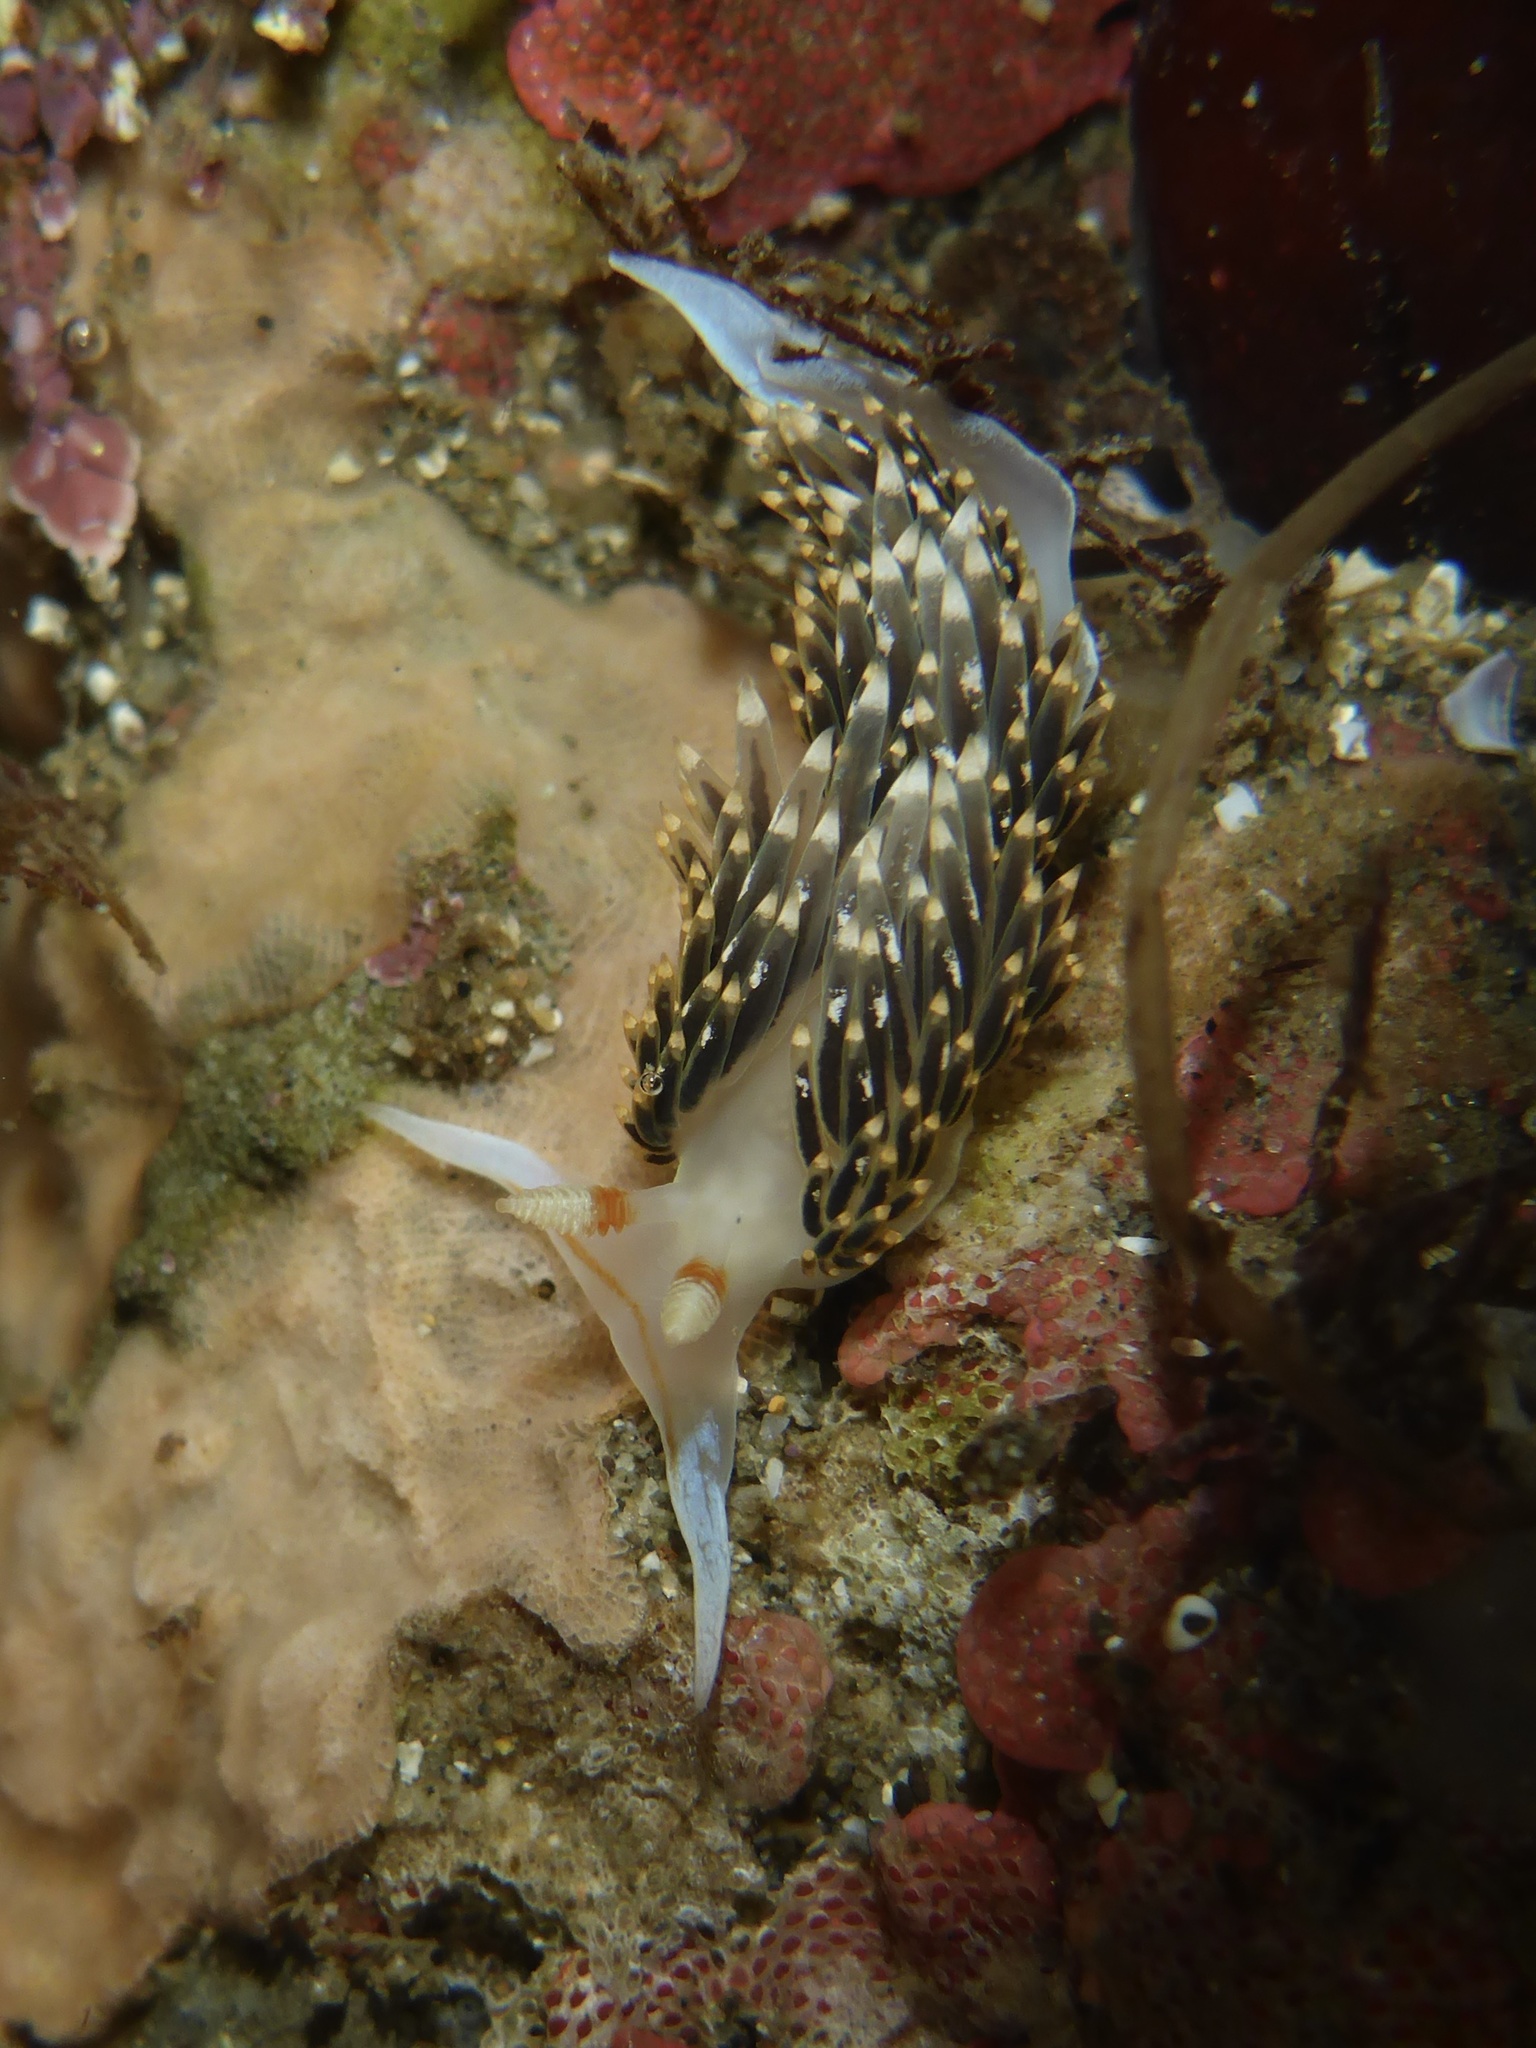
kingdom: Animalia
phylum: Mollusca
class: Gastropoda
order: Nudibranchia
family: Facelinidae
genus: Phidiana
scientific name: Phidiana hiltoni
